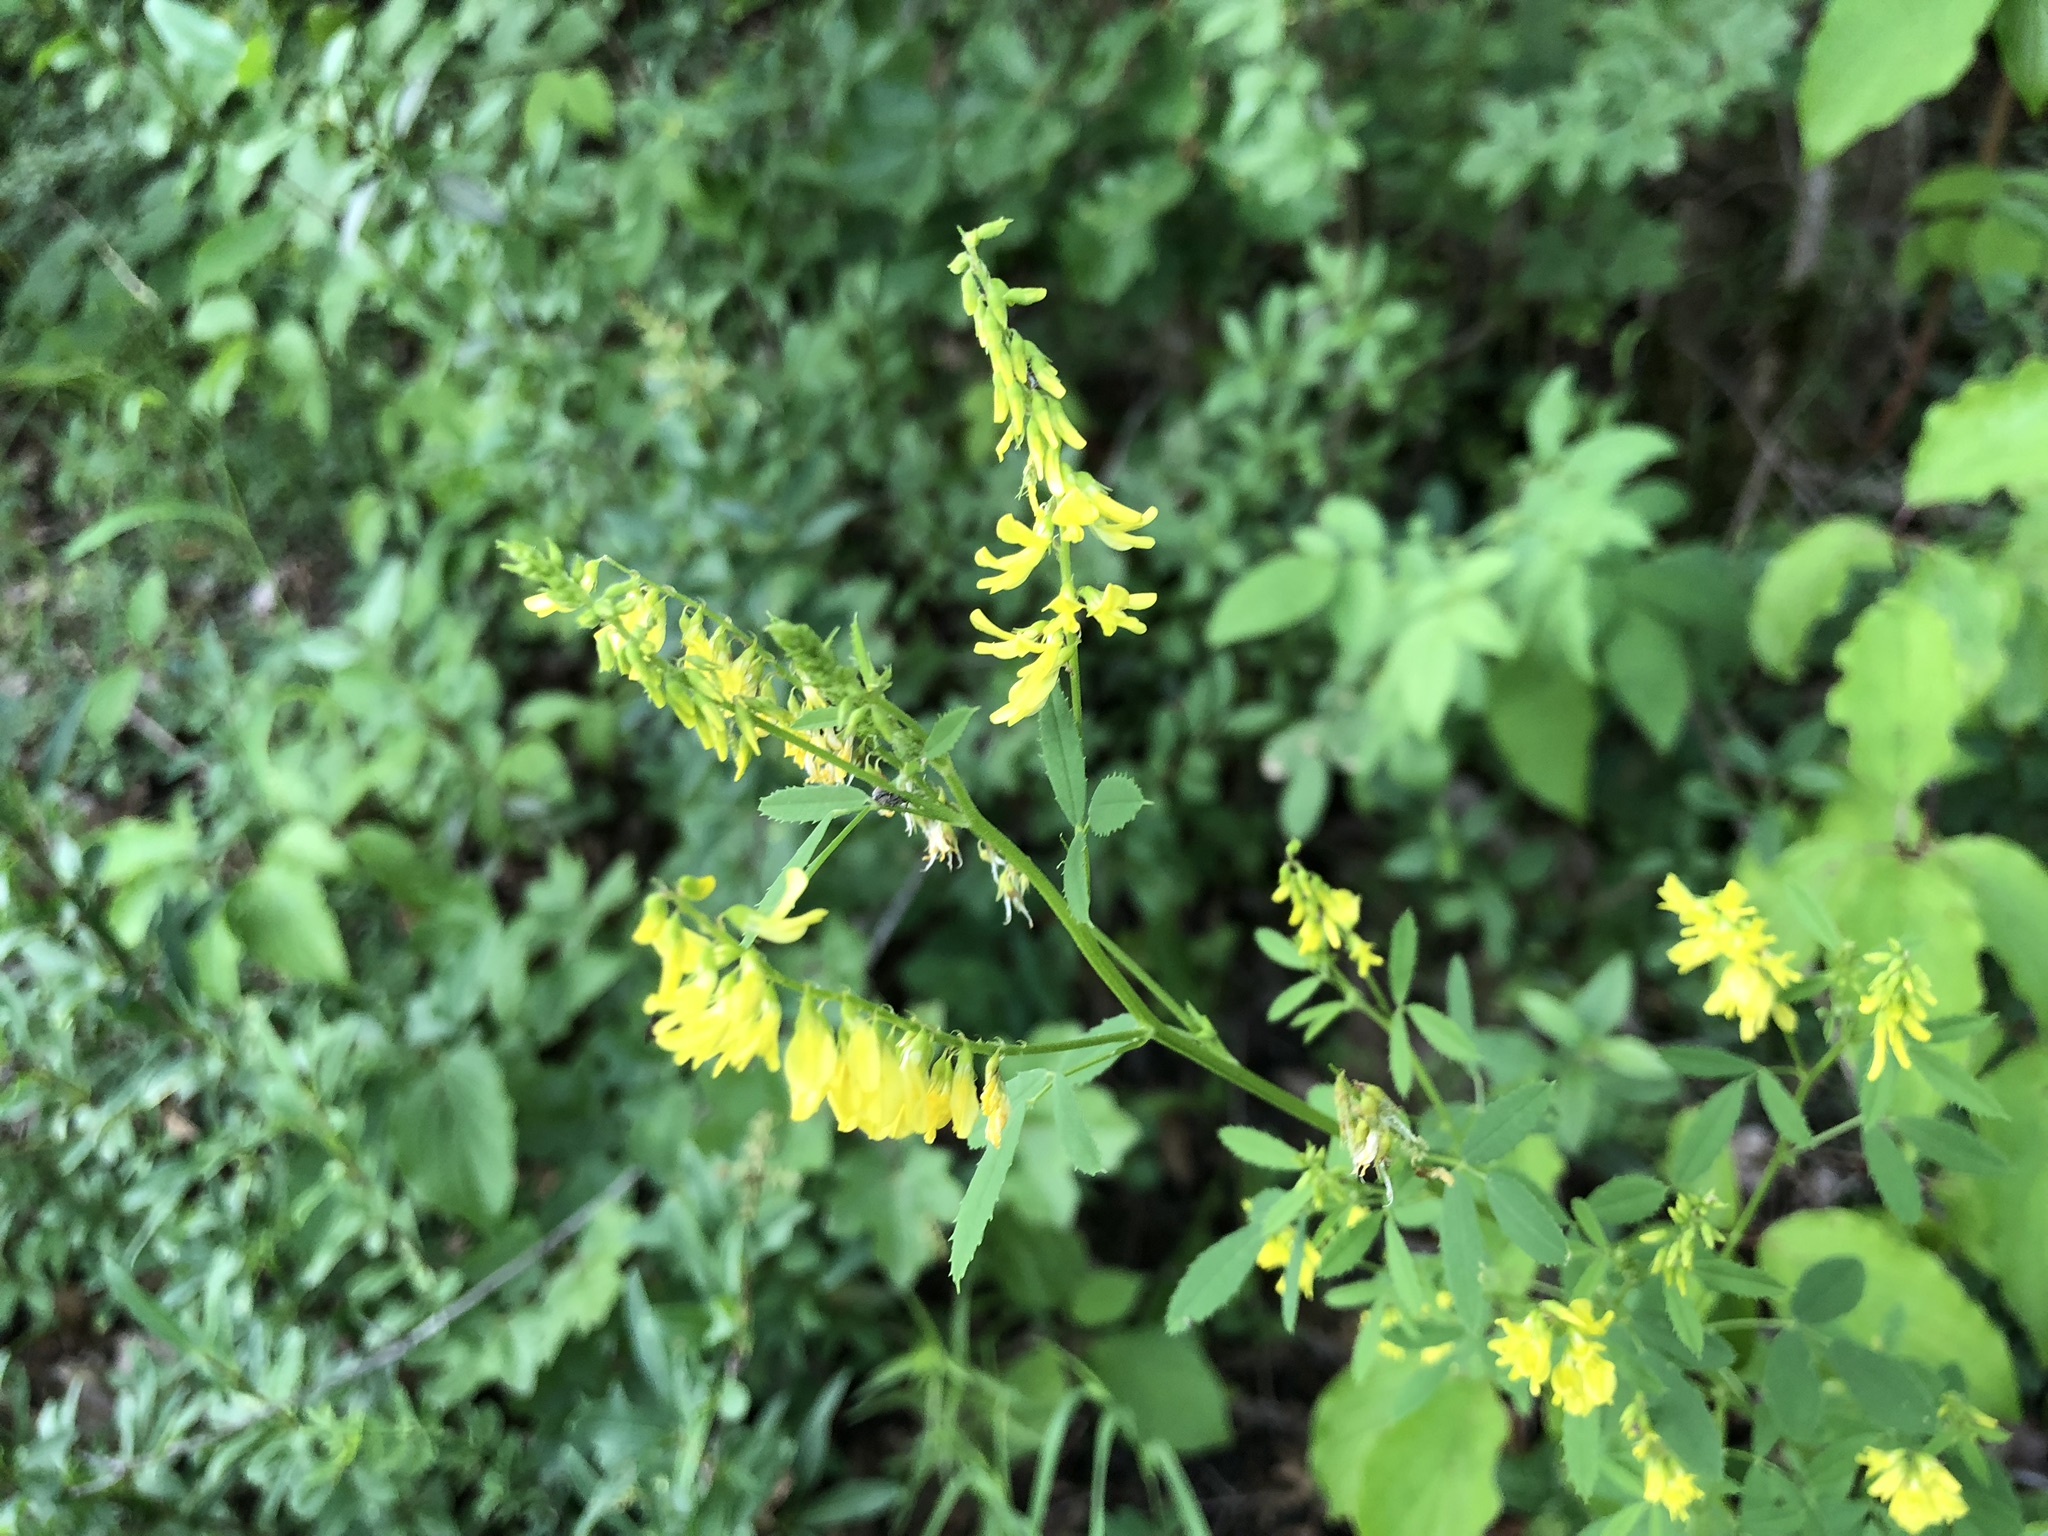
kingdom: Plantae
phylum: Tracheophyta
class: Magnoliopsida
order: Fabales
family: Fabaceae
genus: Melilotus
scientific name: Melilotus officinalis
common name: Sweetclover
